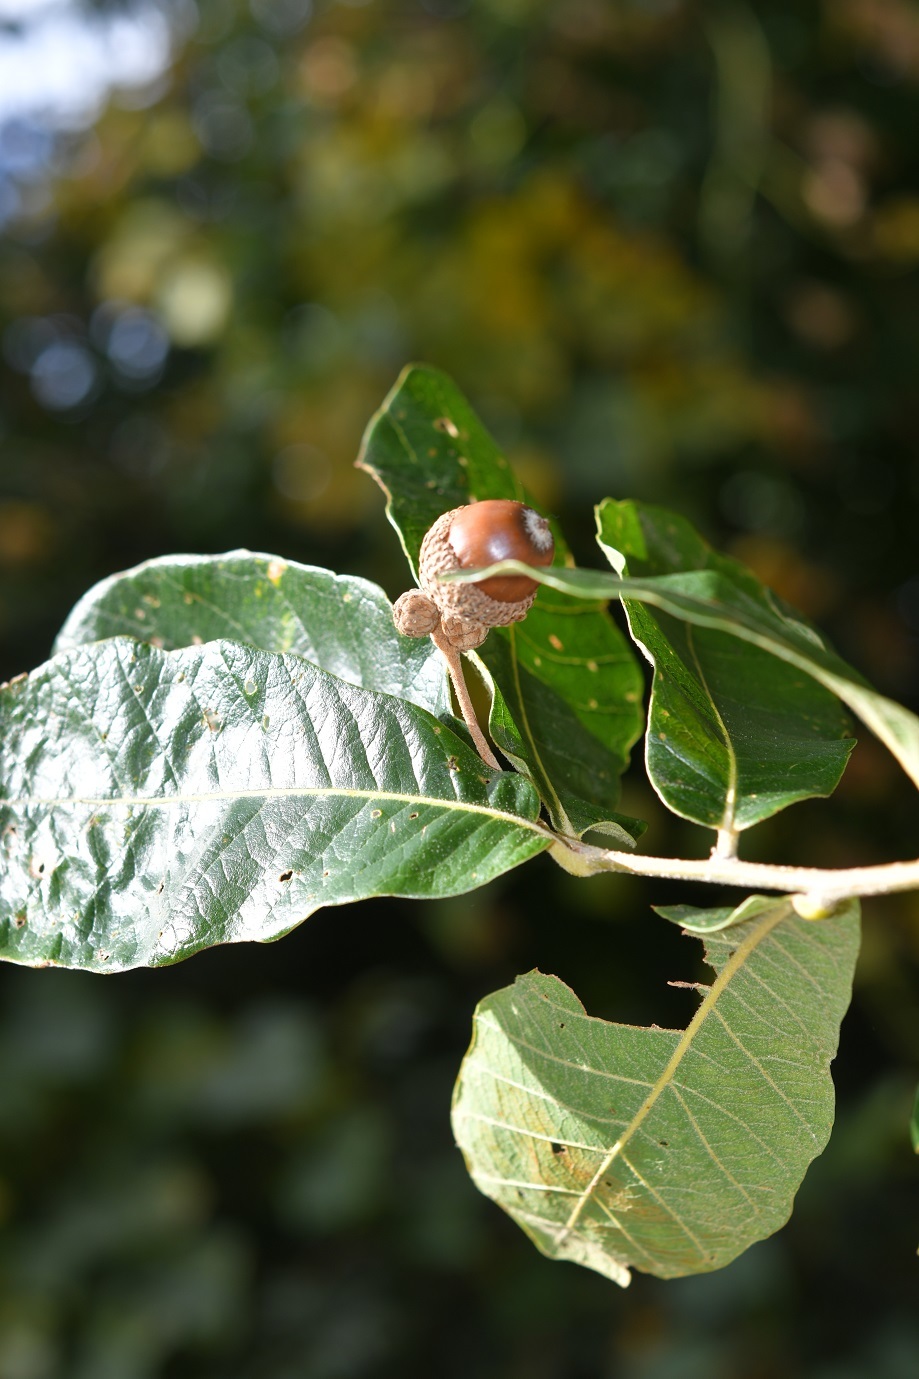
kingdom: Plantae
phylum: Tracheophyta
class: Magnoliopsida
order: Fagales
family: Fagaceae
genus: Quercus
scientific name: Quercus peduncularis
